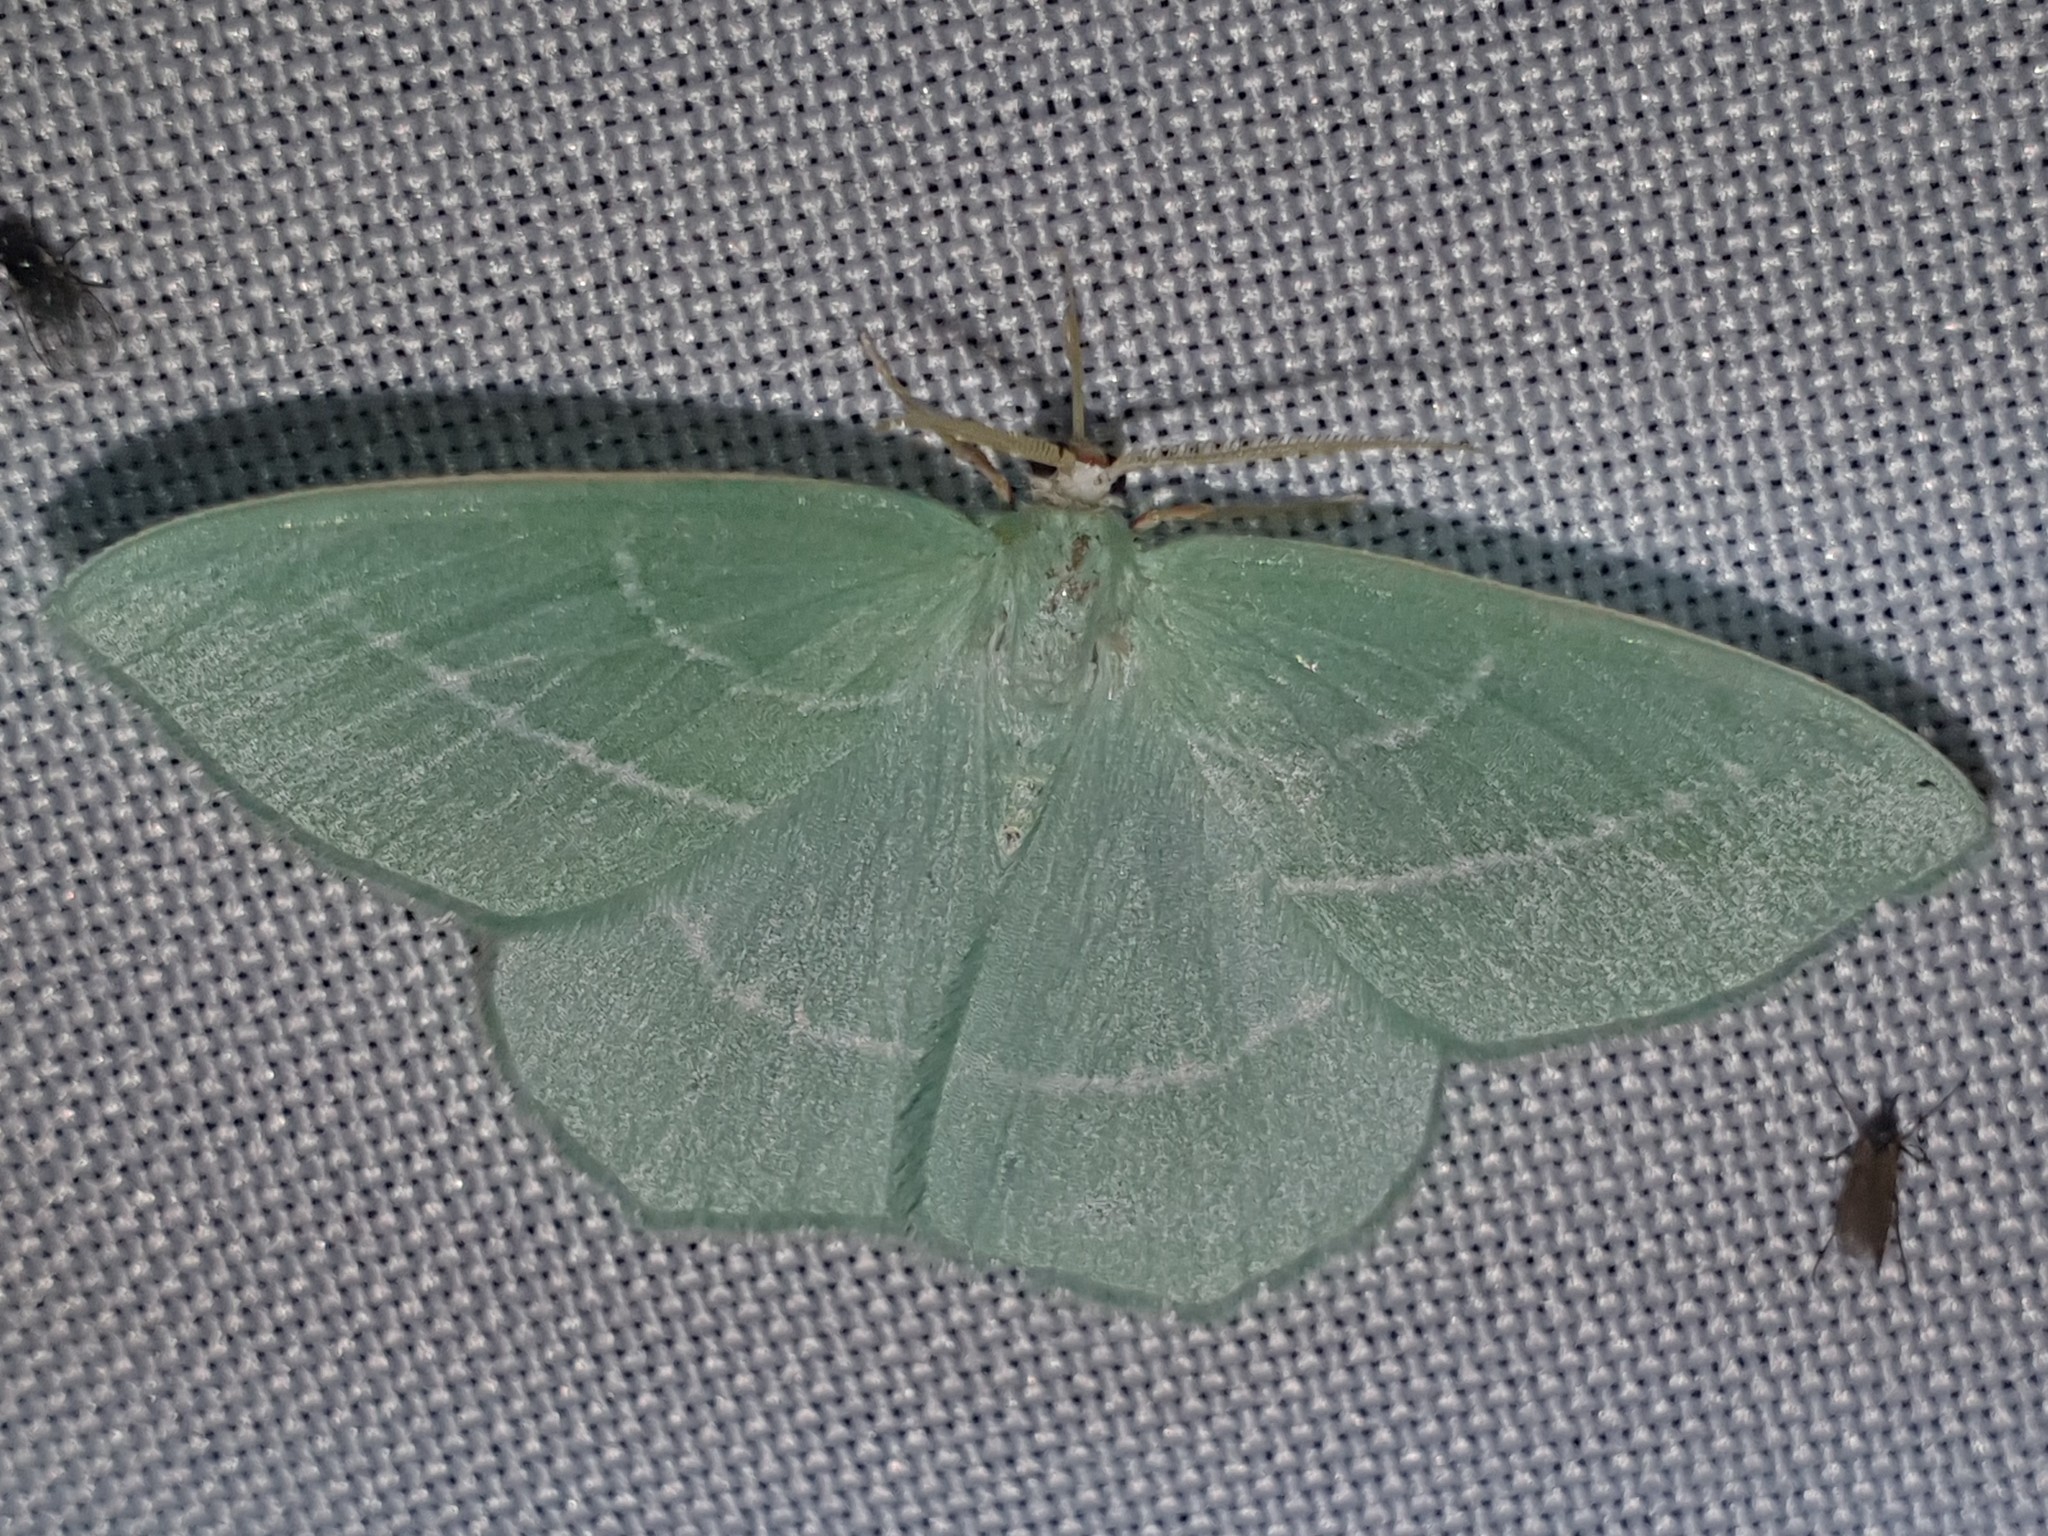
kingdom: Animalia
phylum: Arthropoda
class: Insecta
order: Lepidoptera
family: Geometridae
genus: Hemistola
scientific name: Hemistola chrysoprasaria
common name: Small emerald
